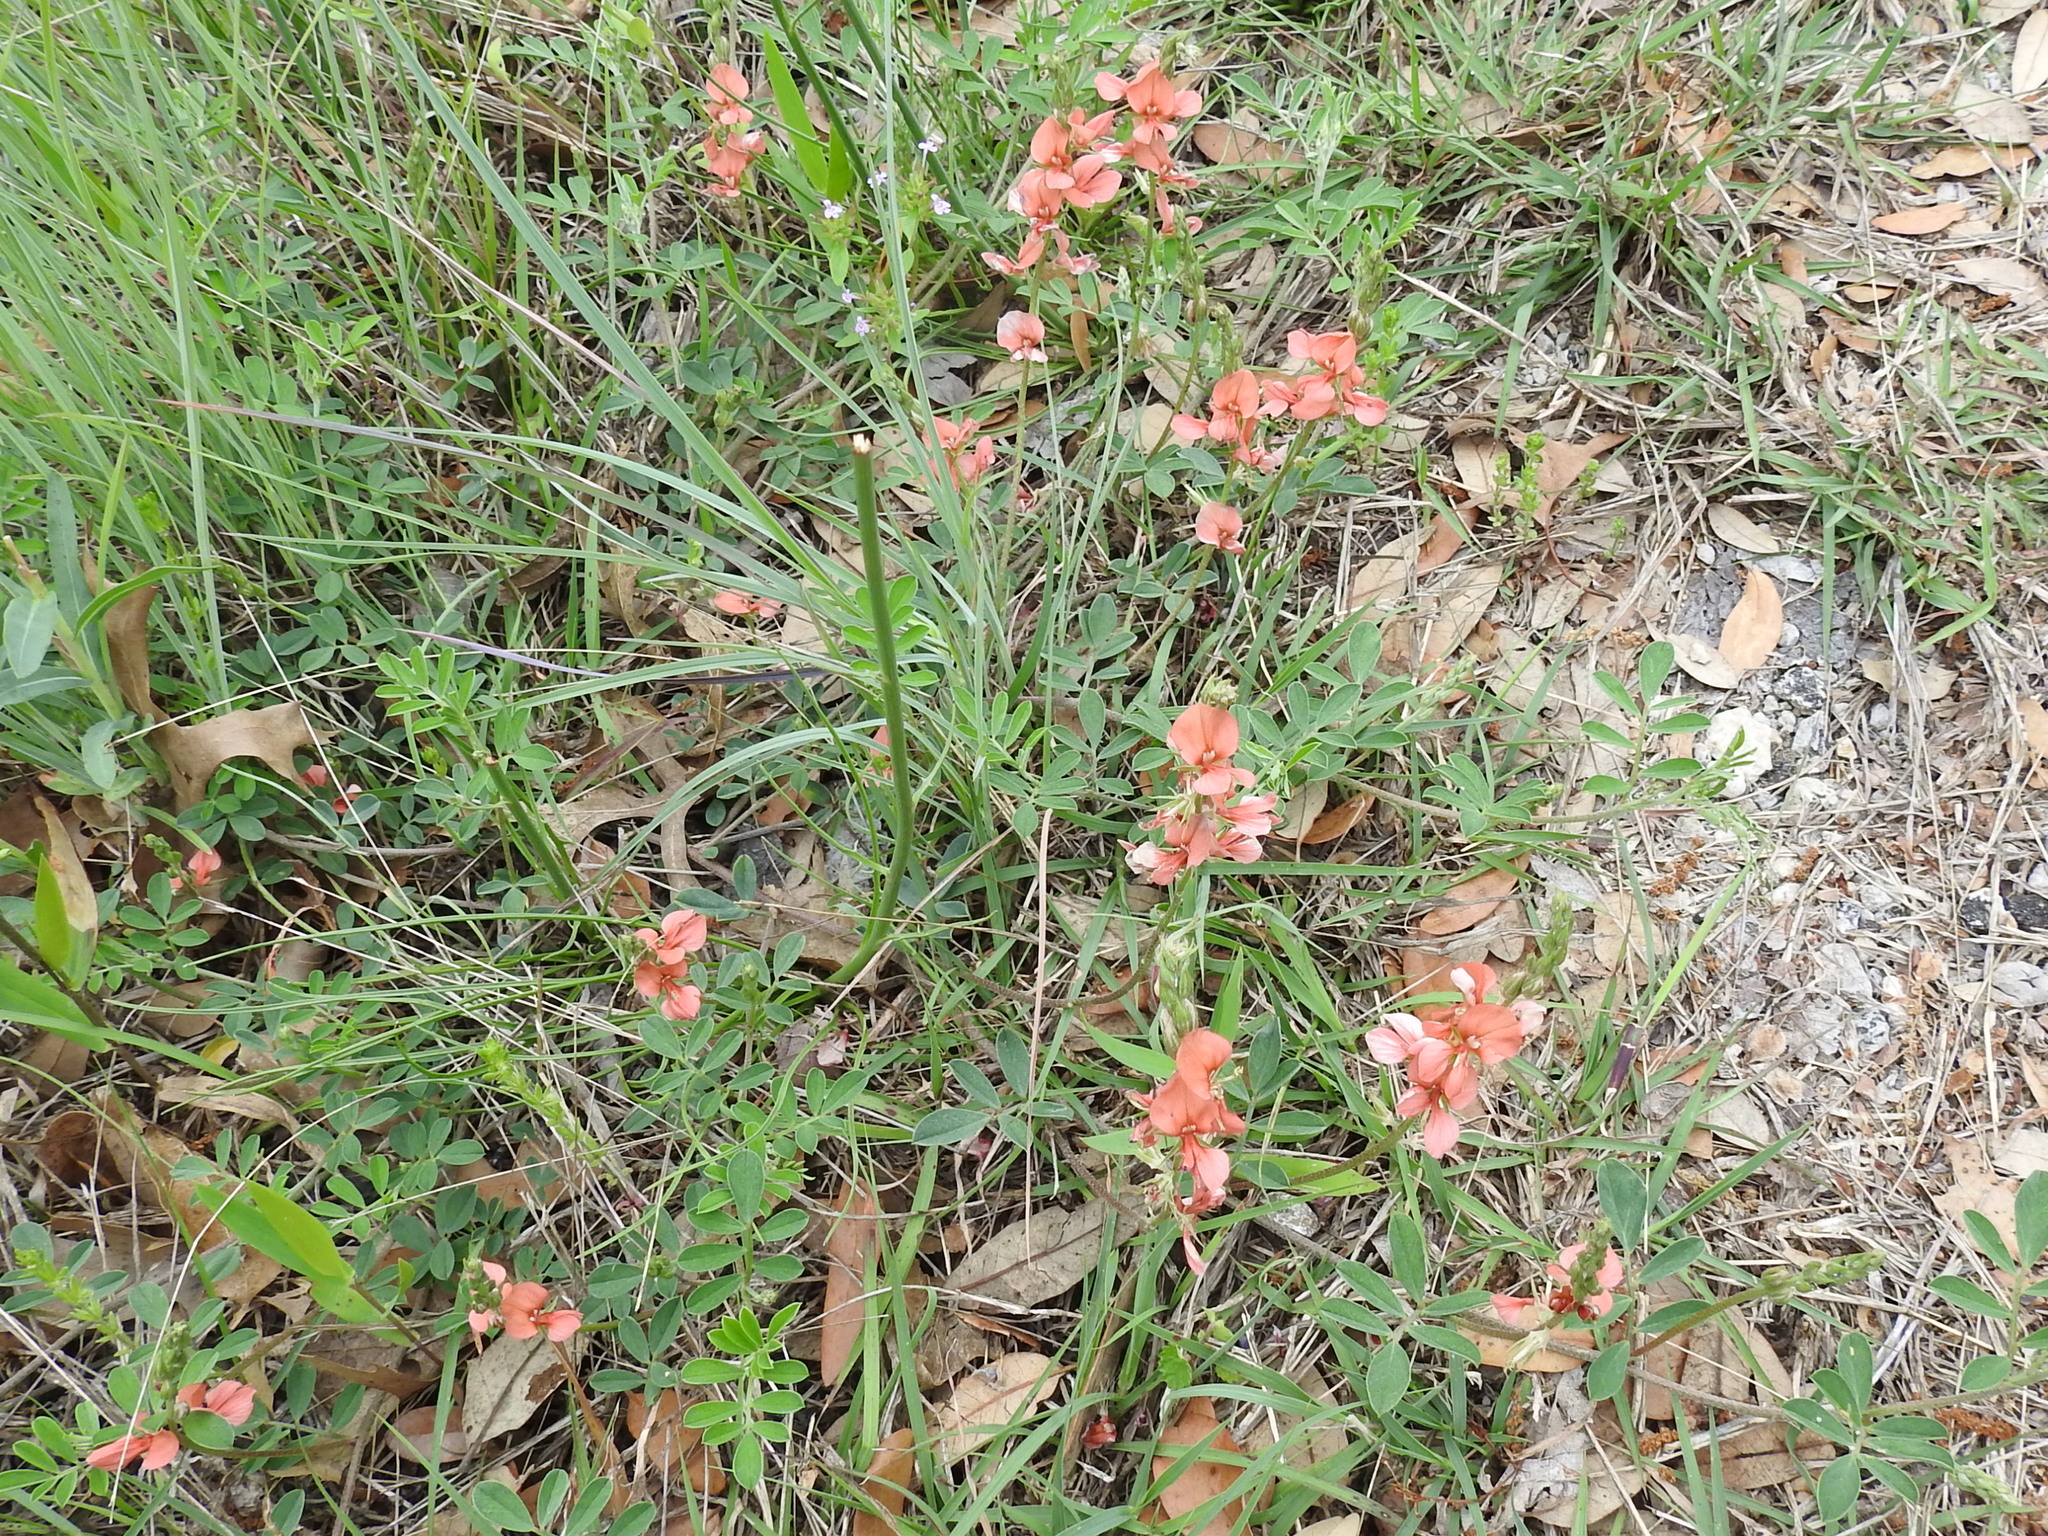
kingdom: Plantae
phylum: Tracheophyta
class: Magnoliopsida
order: Fabales
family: Fabaceae
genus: Indigofera
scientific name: Indigofera miniata
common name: Coast indigo
